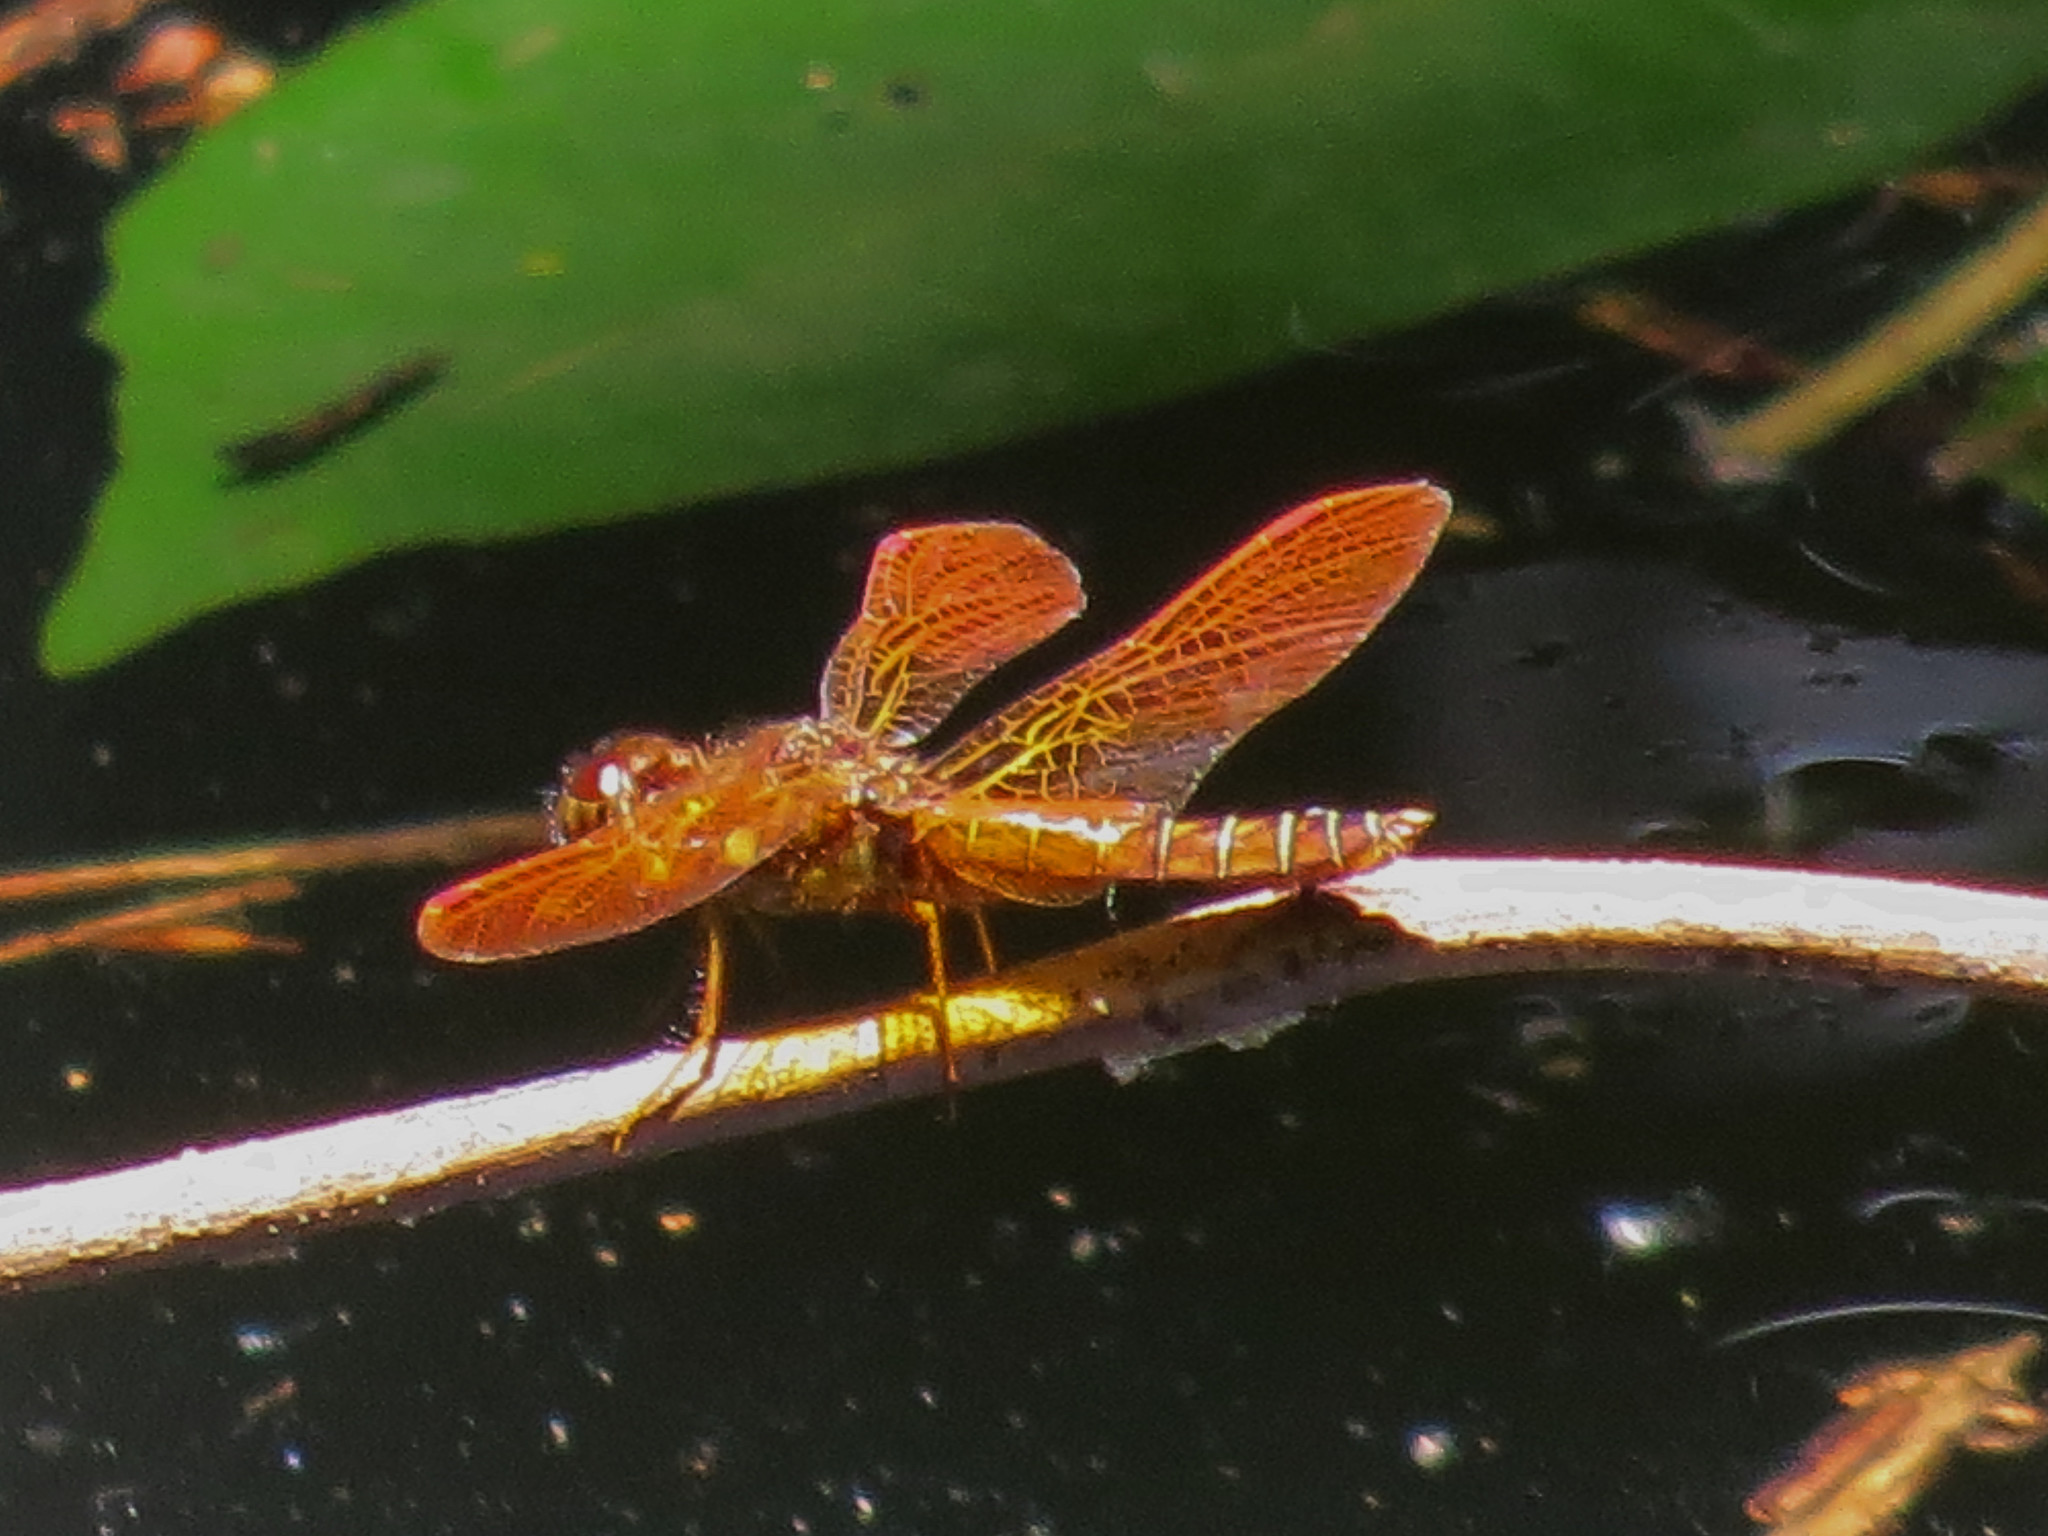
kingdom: Animalia
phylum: Arthropoda
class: Insecta
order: Odonata
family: Libellulidae
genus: Perithemis
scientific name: Perithemis tenera
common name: Eastern amberwing
